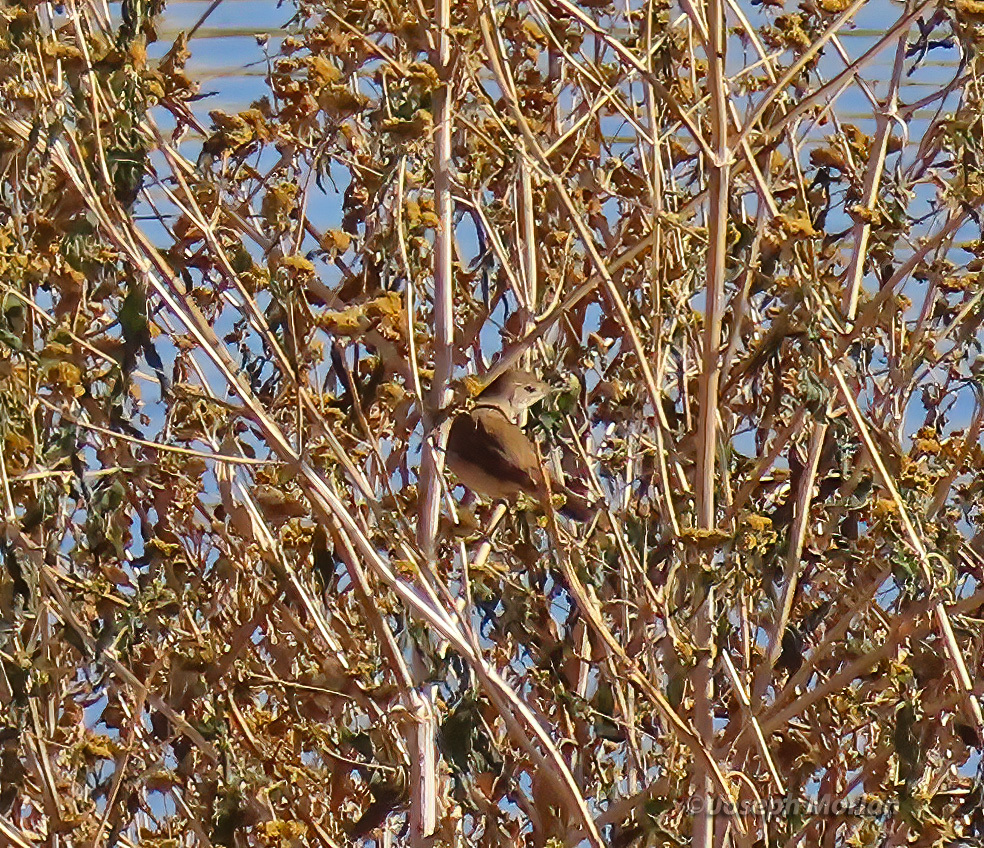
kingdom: Animalia
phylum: Chordata
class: Aves
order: Passeriformes
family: Acrocephalidae
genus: Acrocephalus
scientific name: Acrocephalus gracilirostris
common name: Lesser swamp warbler
